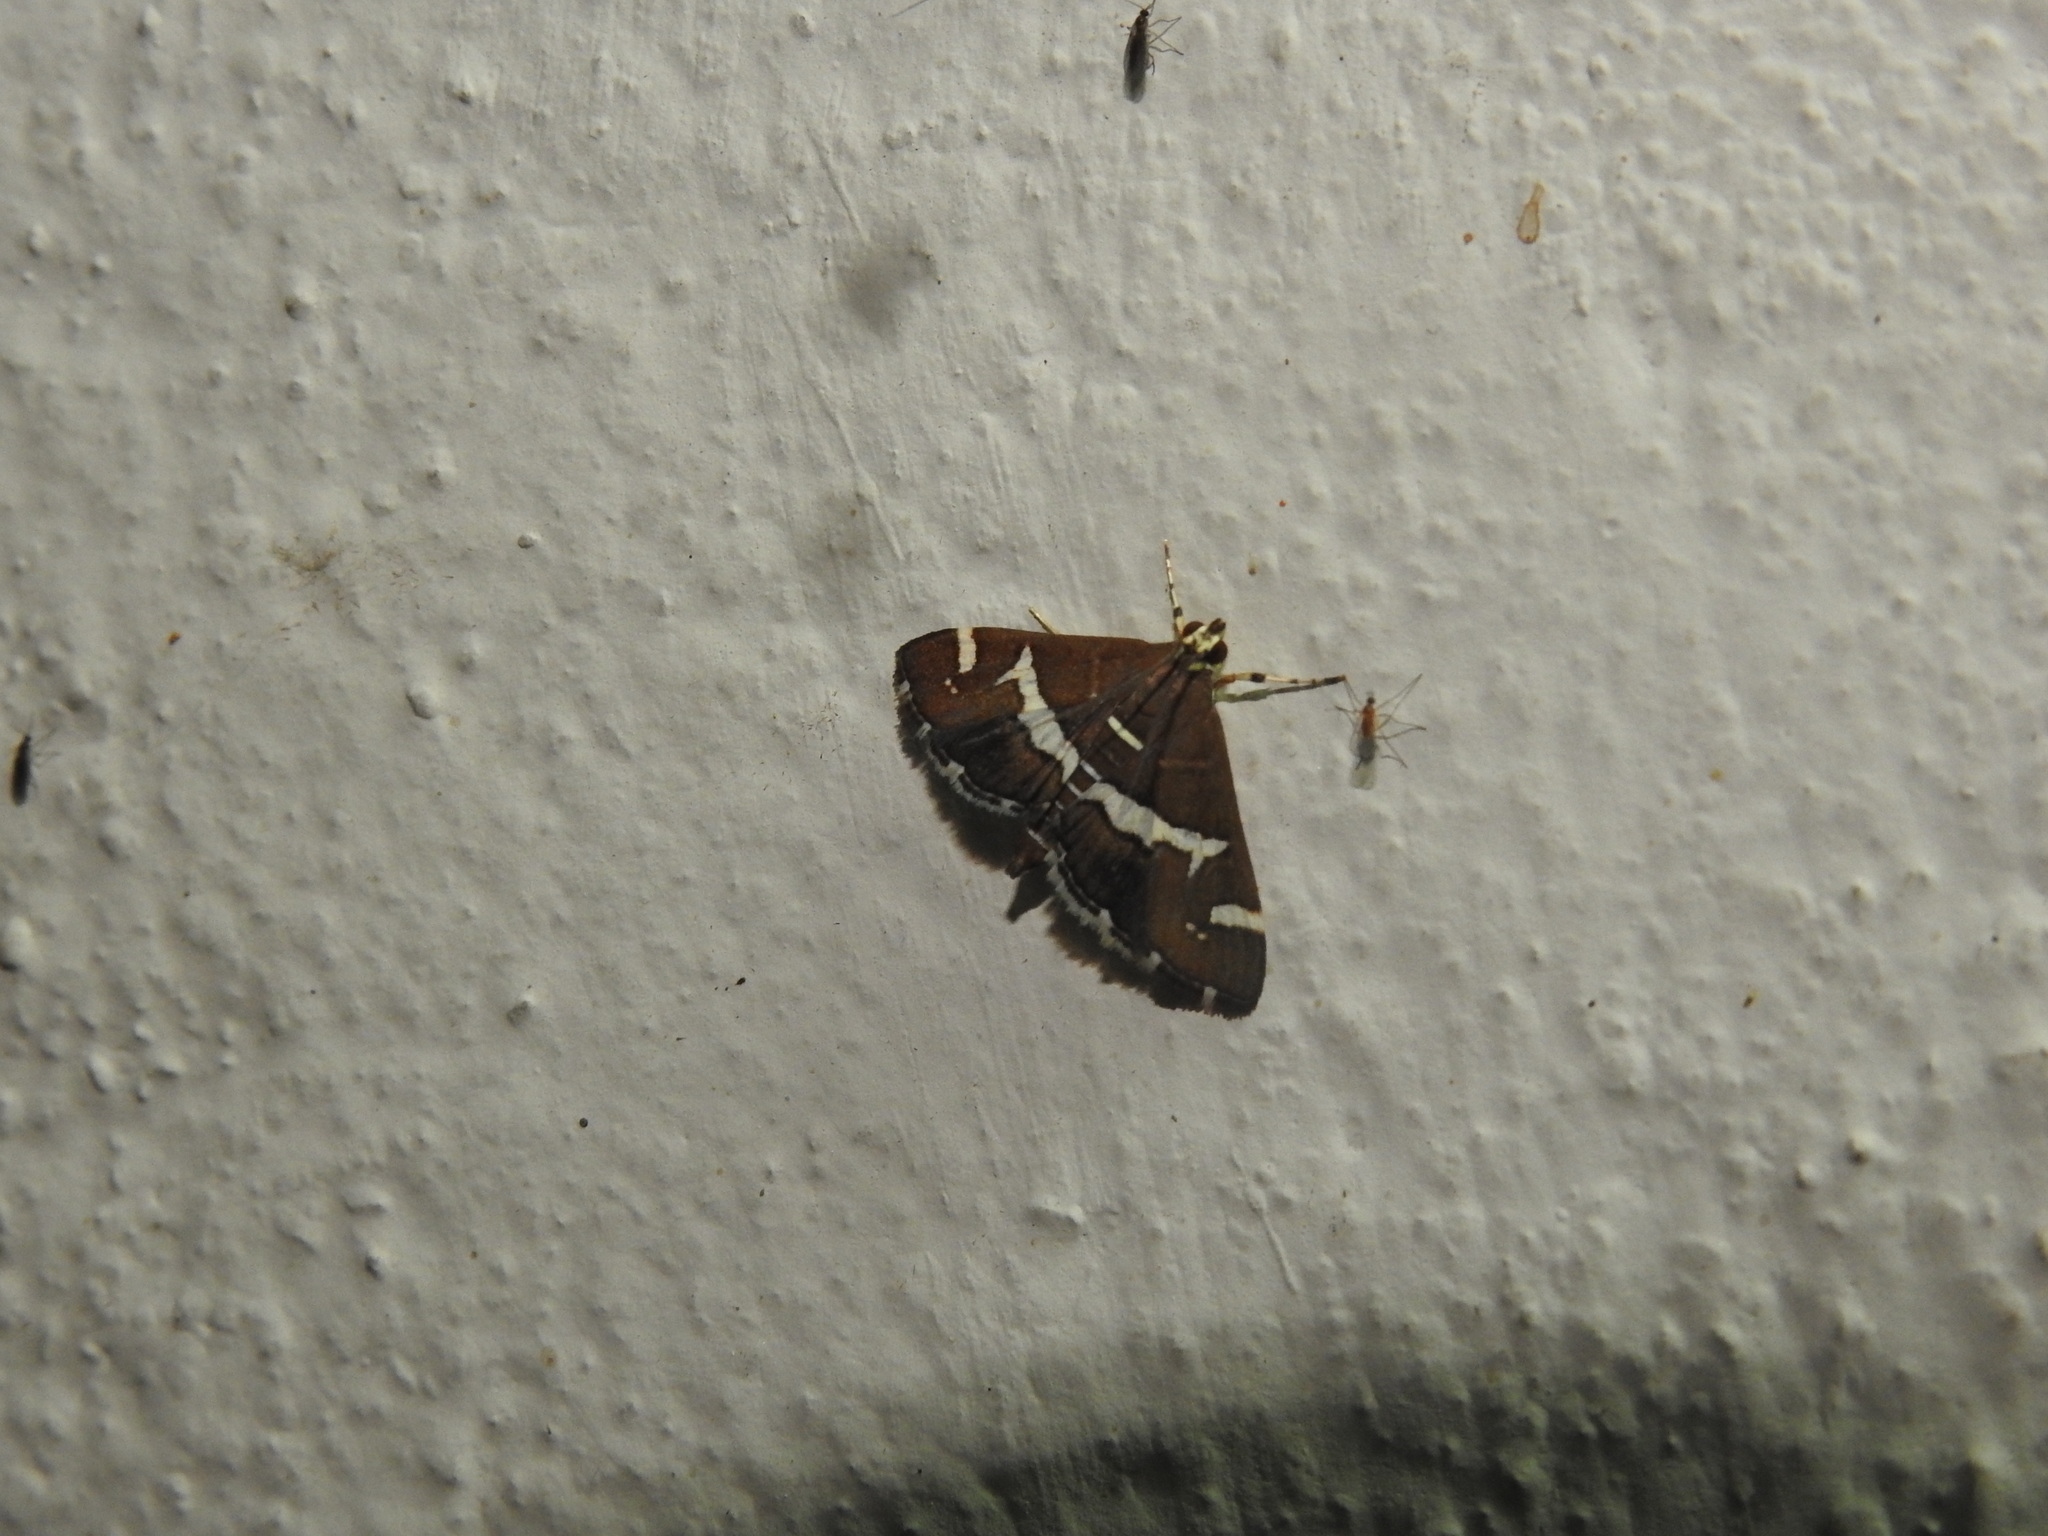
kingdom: Animalia
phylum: Arthropoda
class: Insecta
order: Lepidoptera
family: Crambidae
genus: Spoladea
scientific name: Spoladea recurvalis
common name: Beet webworm moth
